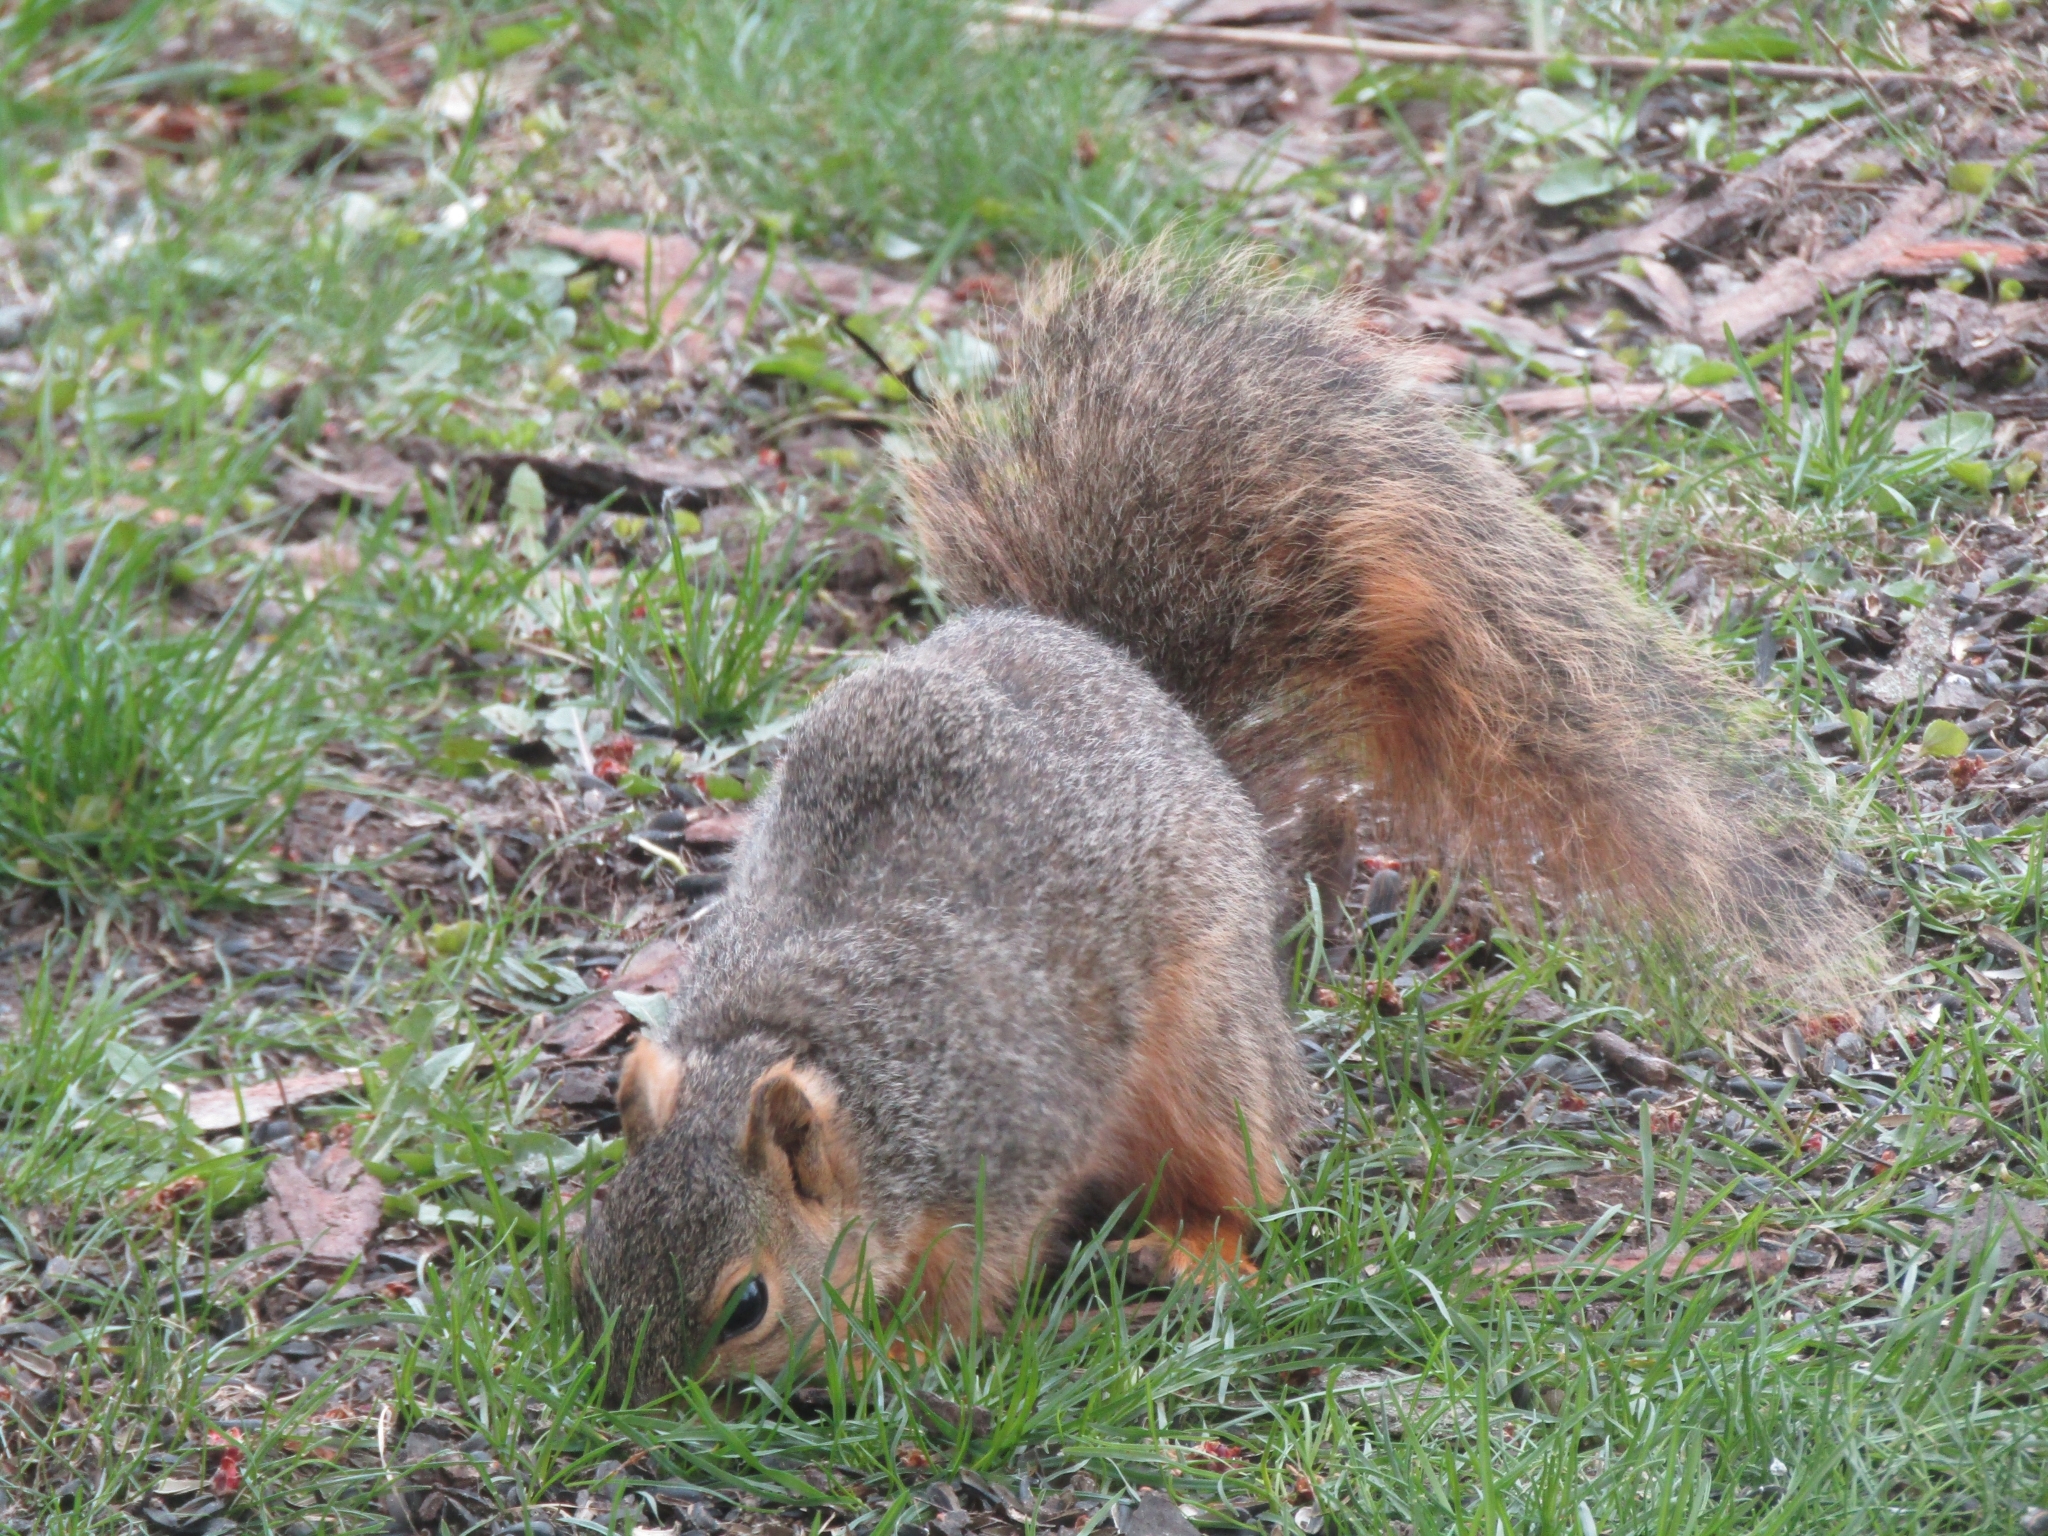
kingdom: Animalia
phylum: Chordata
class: Mammalia
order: Rodentia
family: Sciuridae
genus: Sciurus
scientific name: Sciurus niger
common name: Fox squirrel
